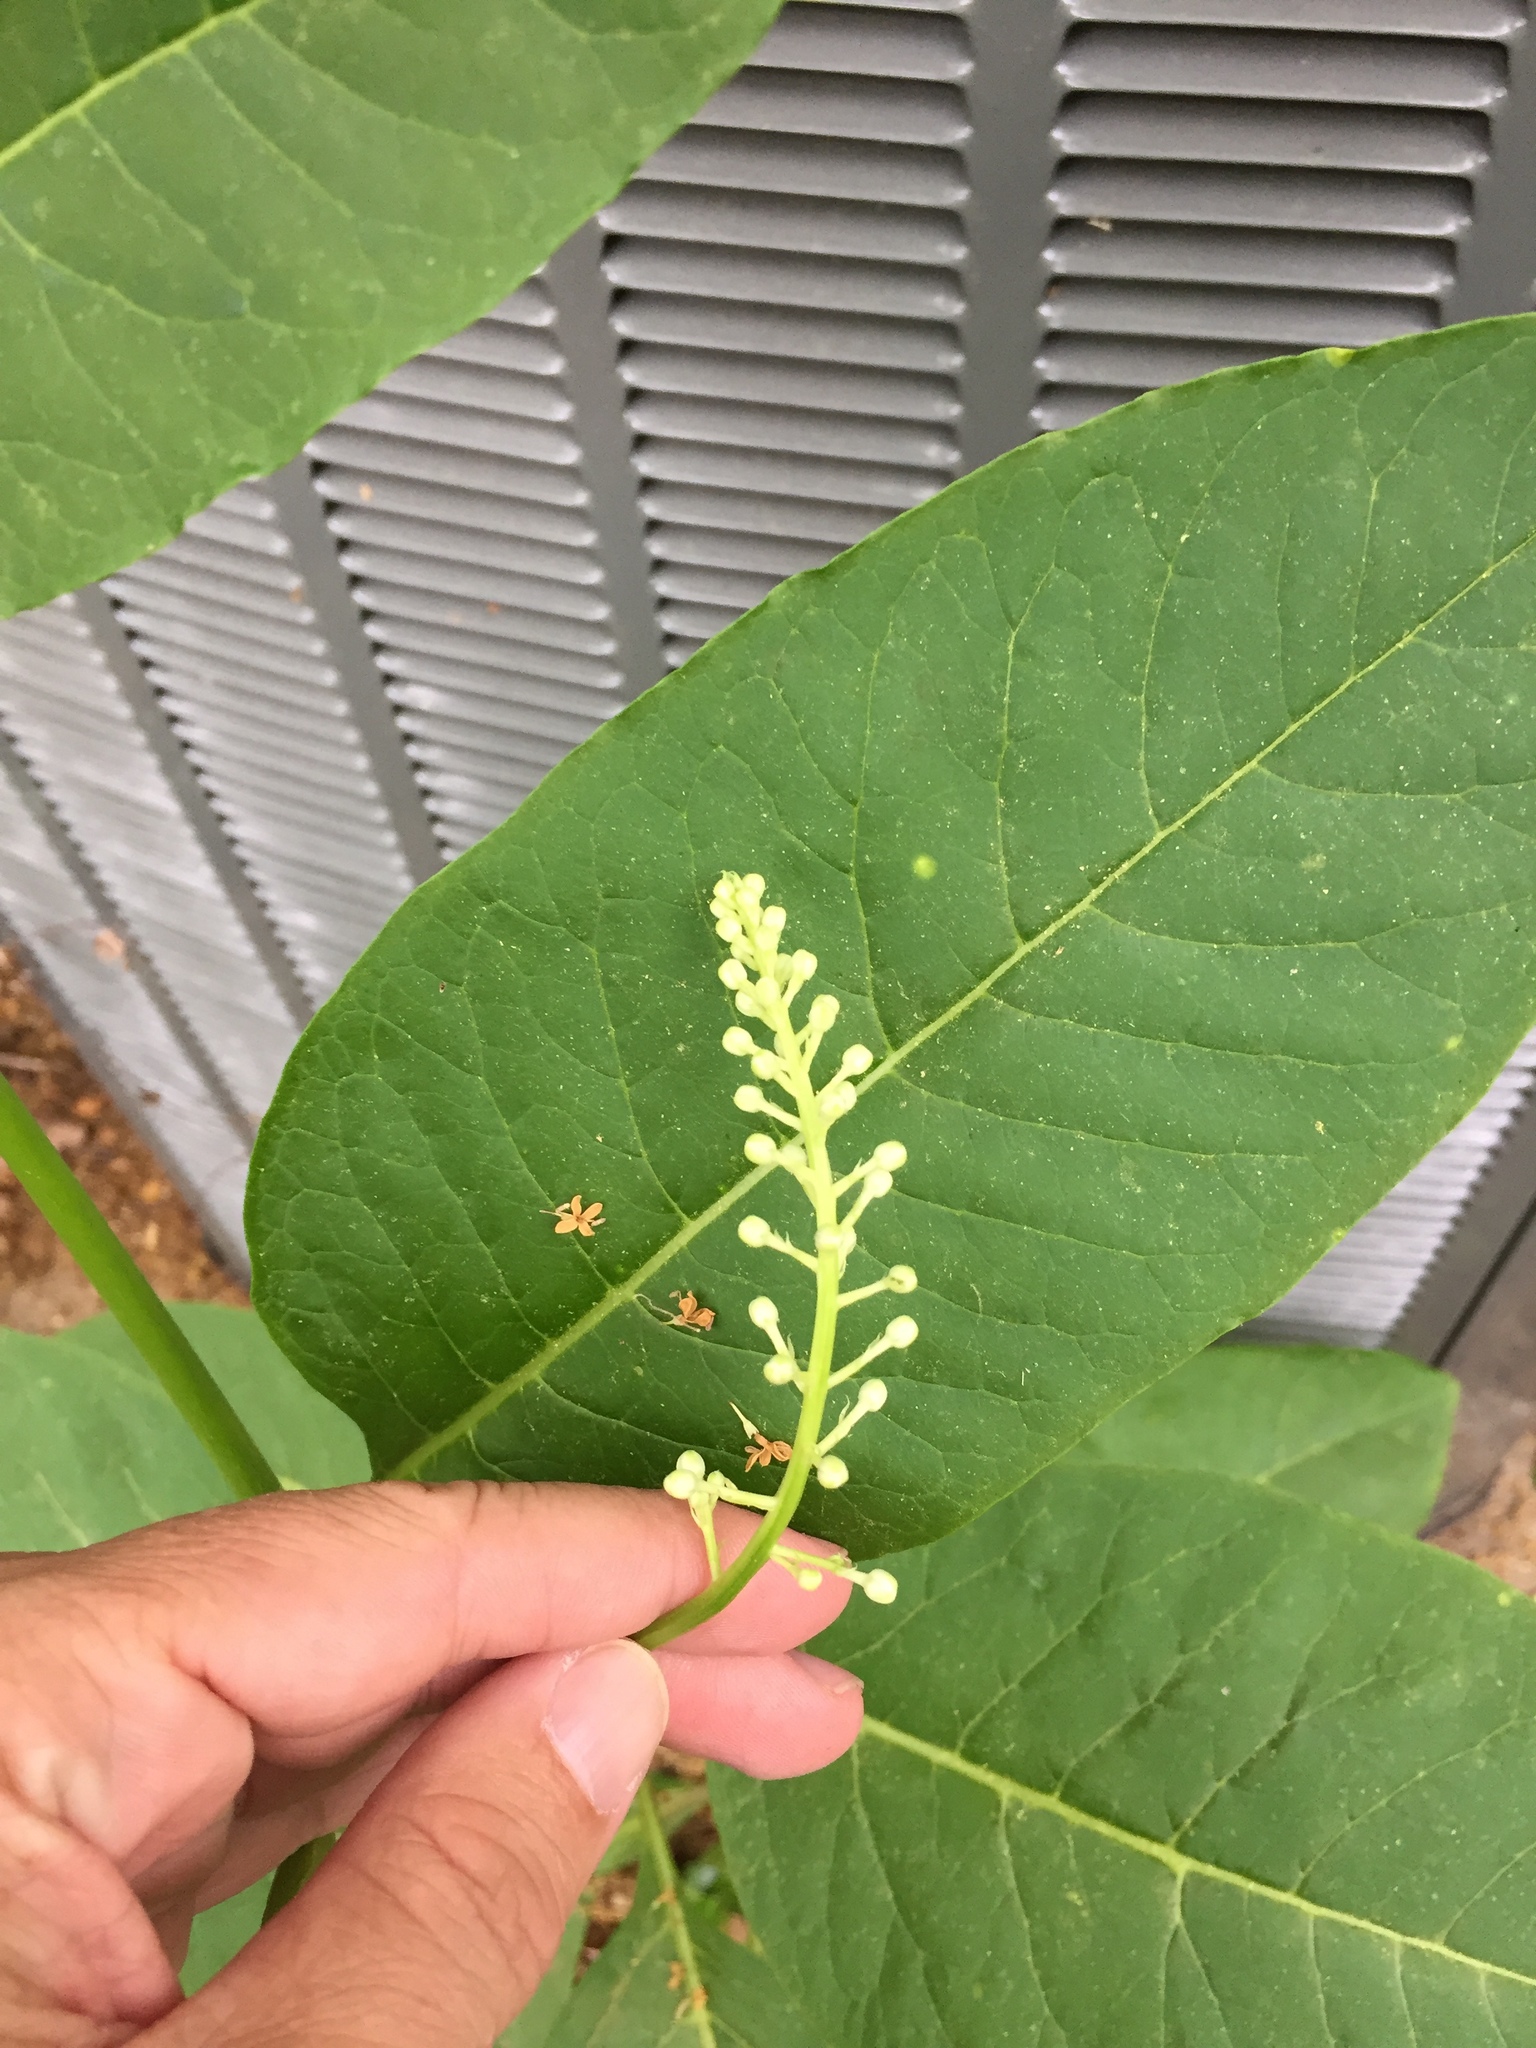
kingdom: Plantae
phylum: Tracheophyta
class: Magnoliopsida
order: Caryophyllales
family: Phytolaccaceae
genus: Phytolacca
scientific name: Phytolacca americana
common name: American pokeweed
